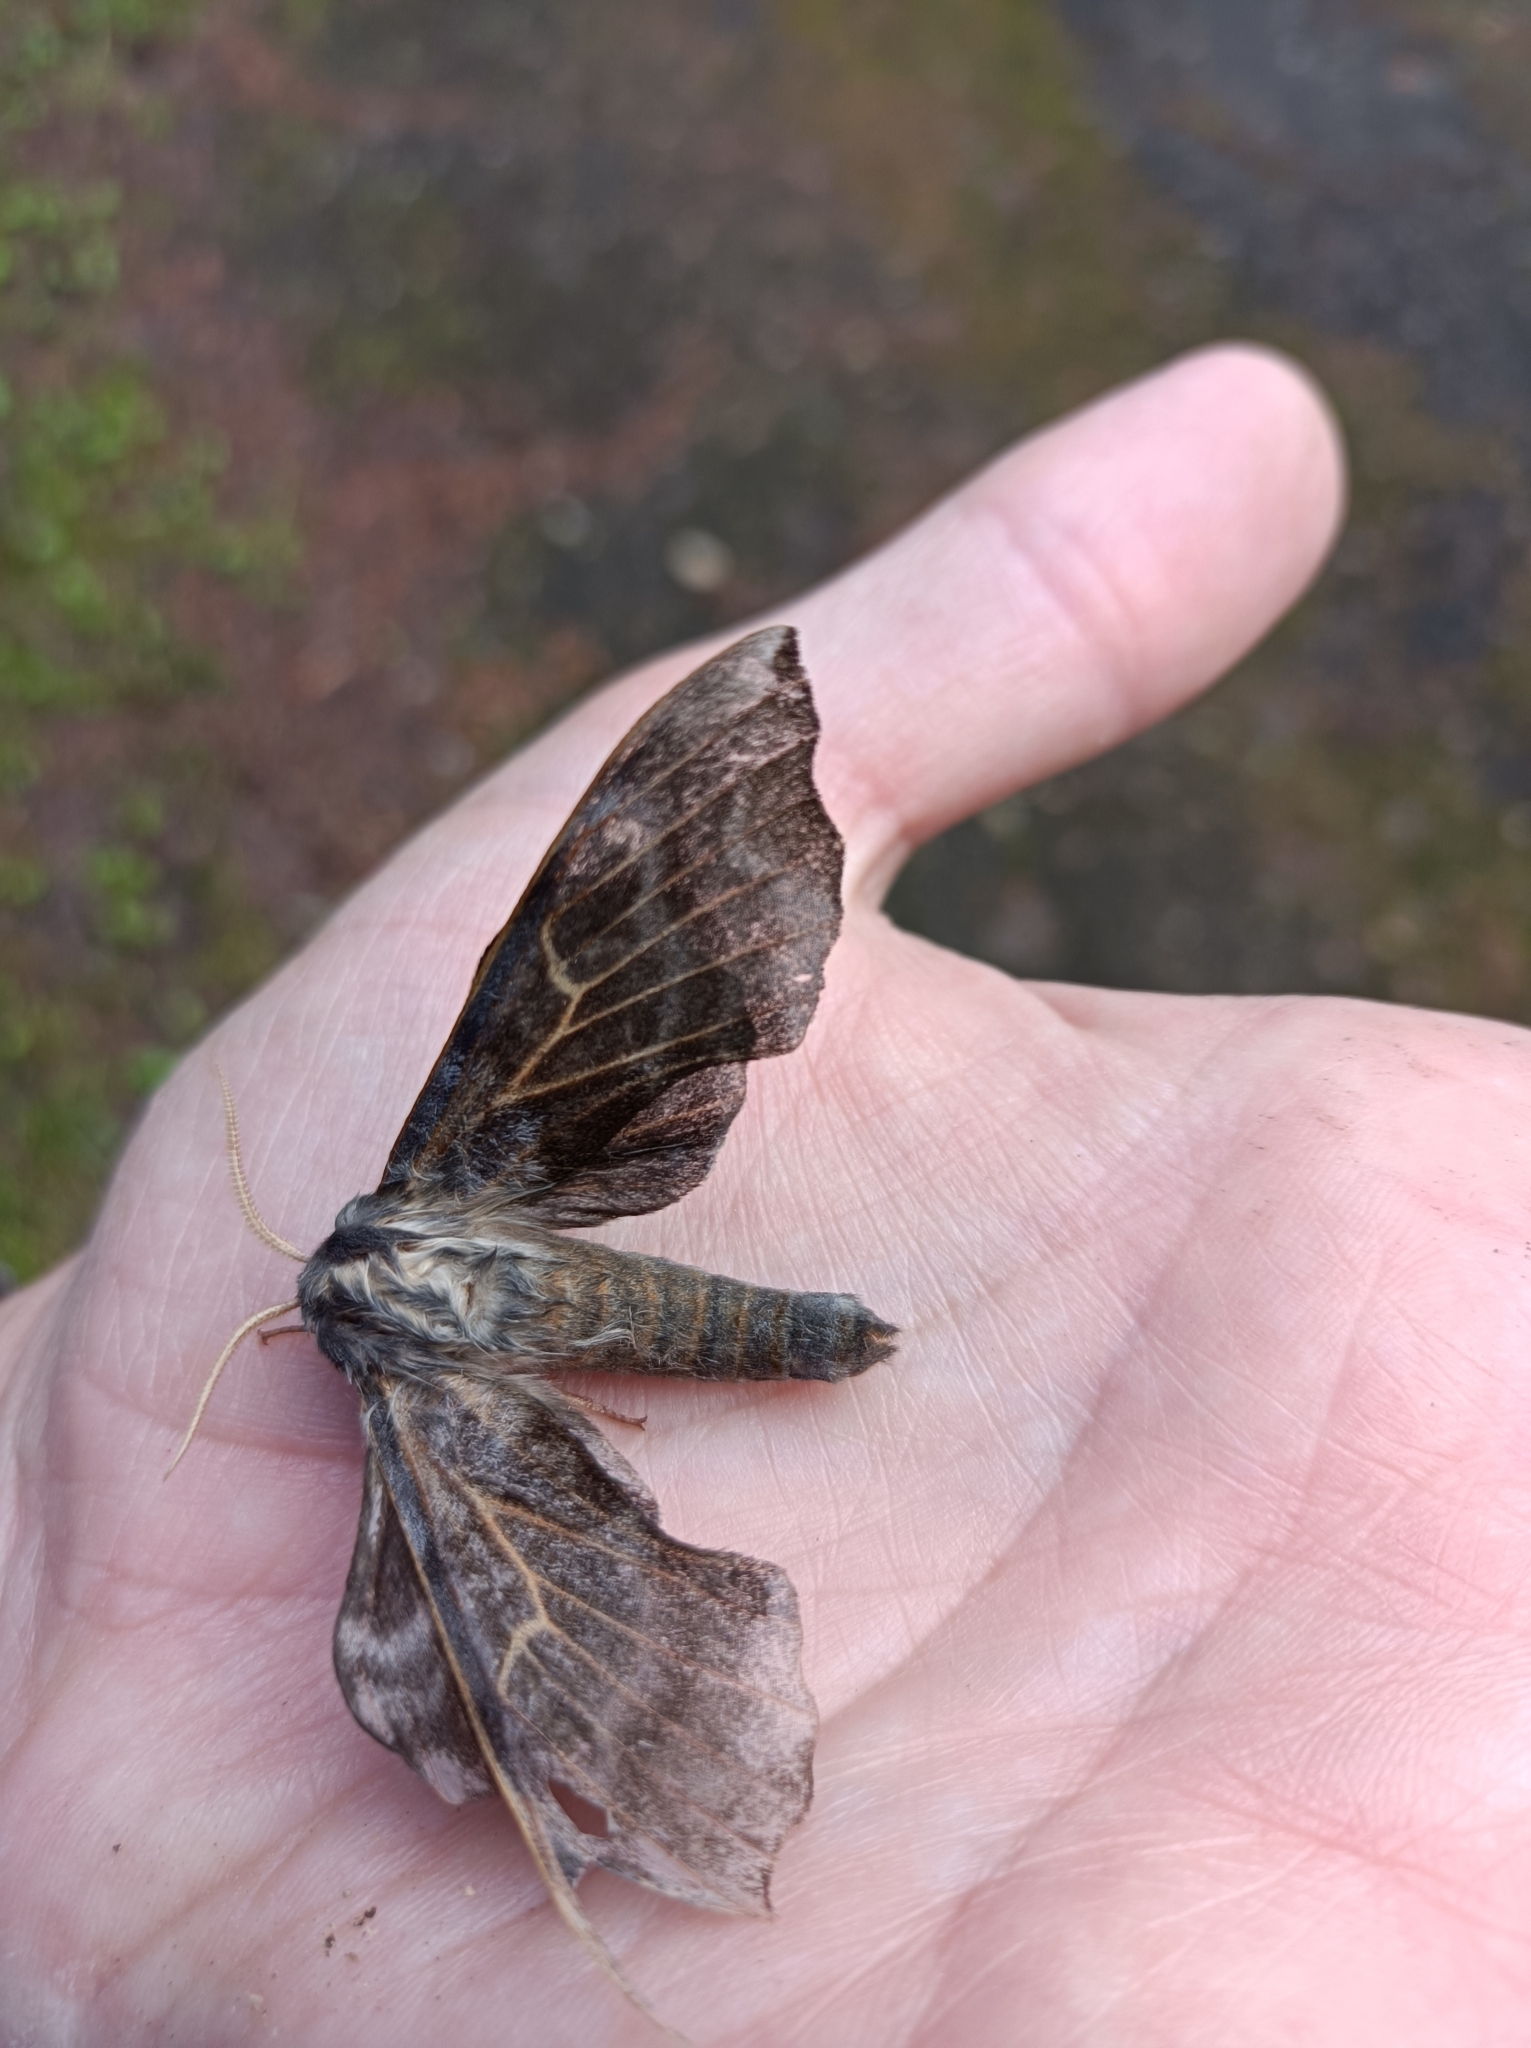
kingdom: Animalia
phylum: Arthropoda
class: Insecta
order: Lepidoptera
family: Sphingidae
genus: Laothoe
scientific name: Laothoe amurensis
